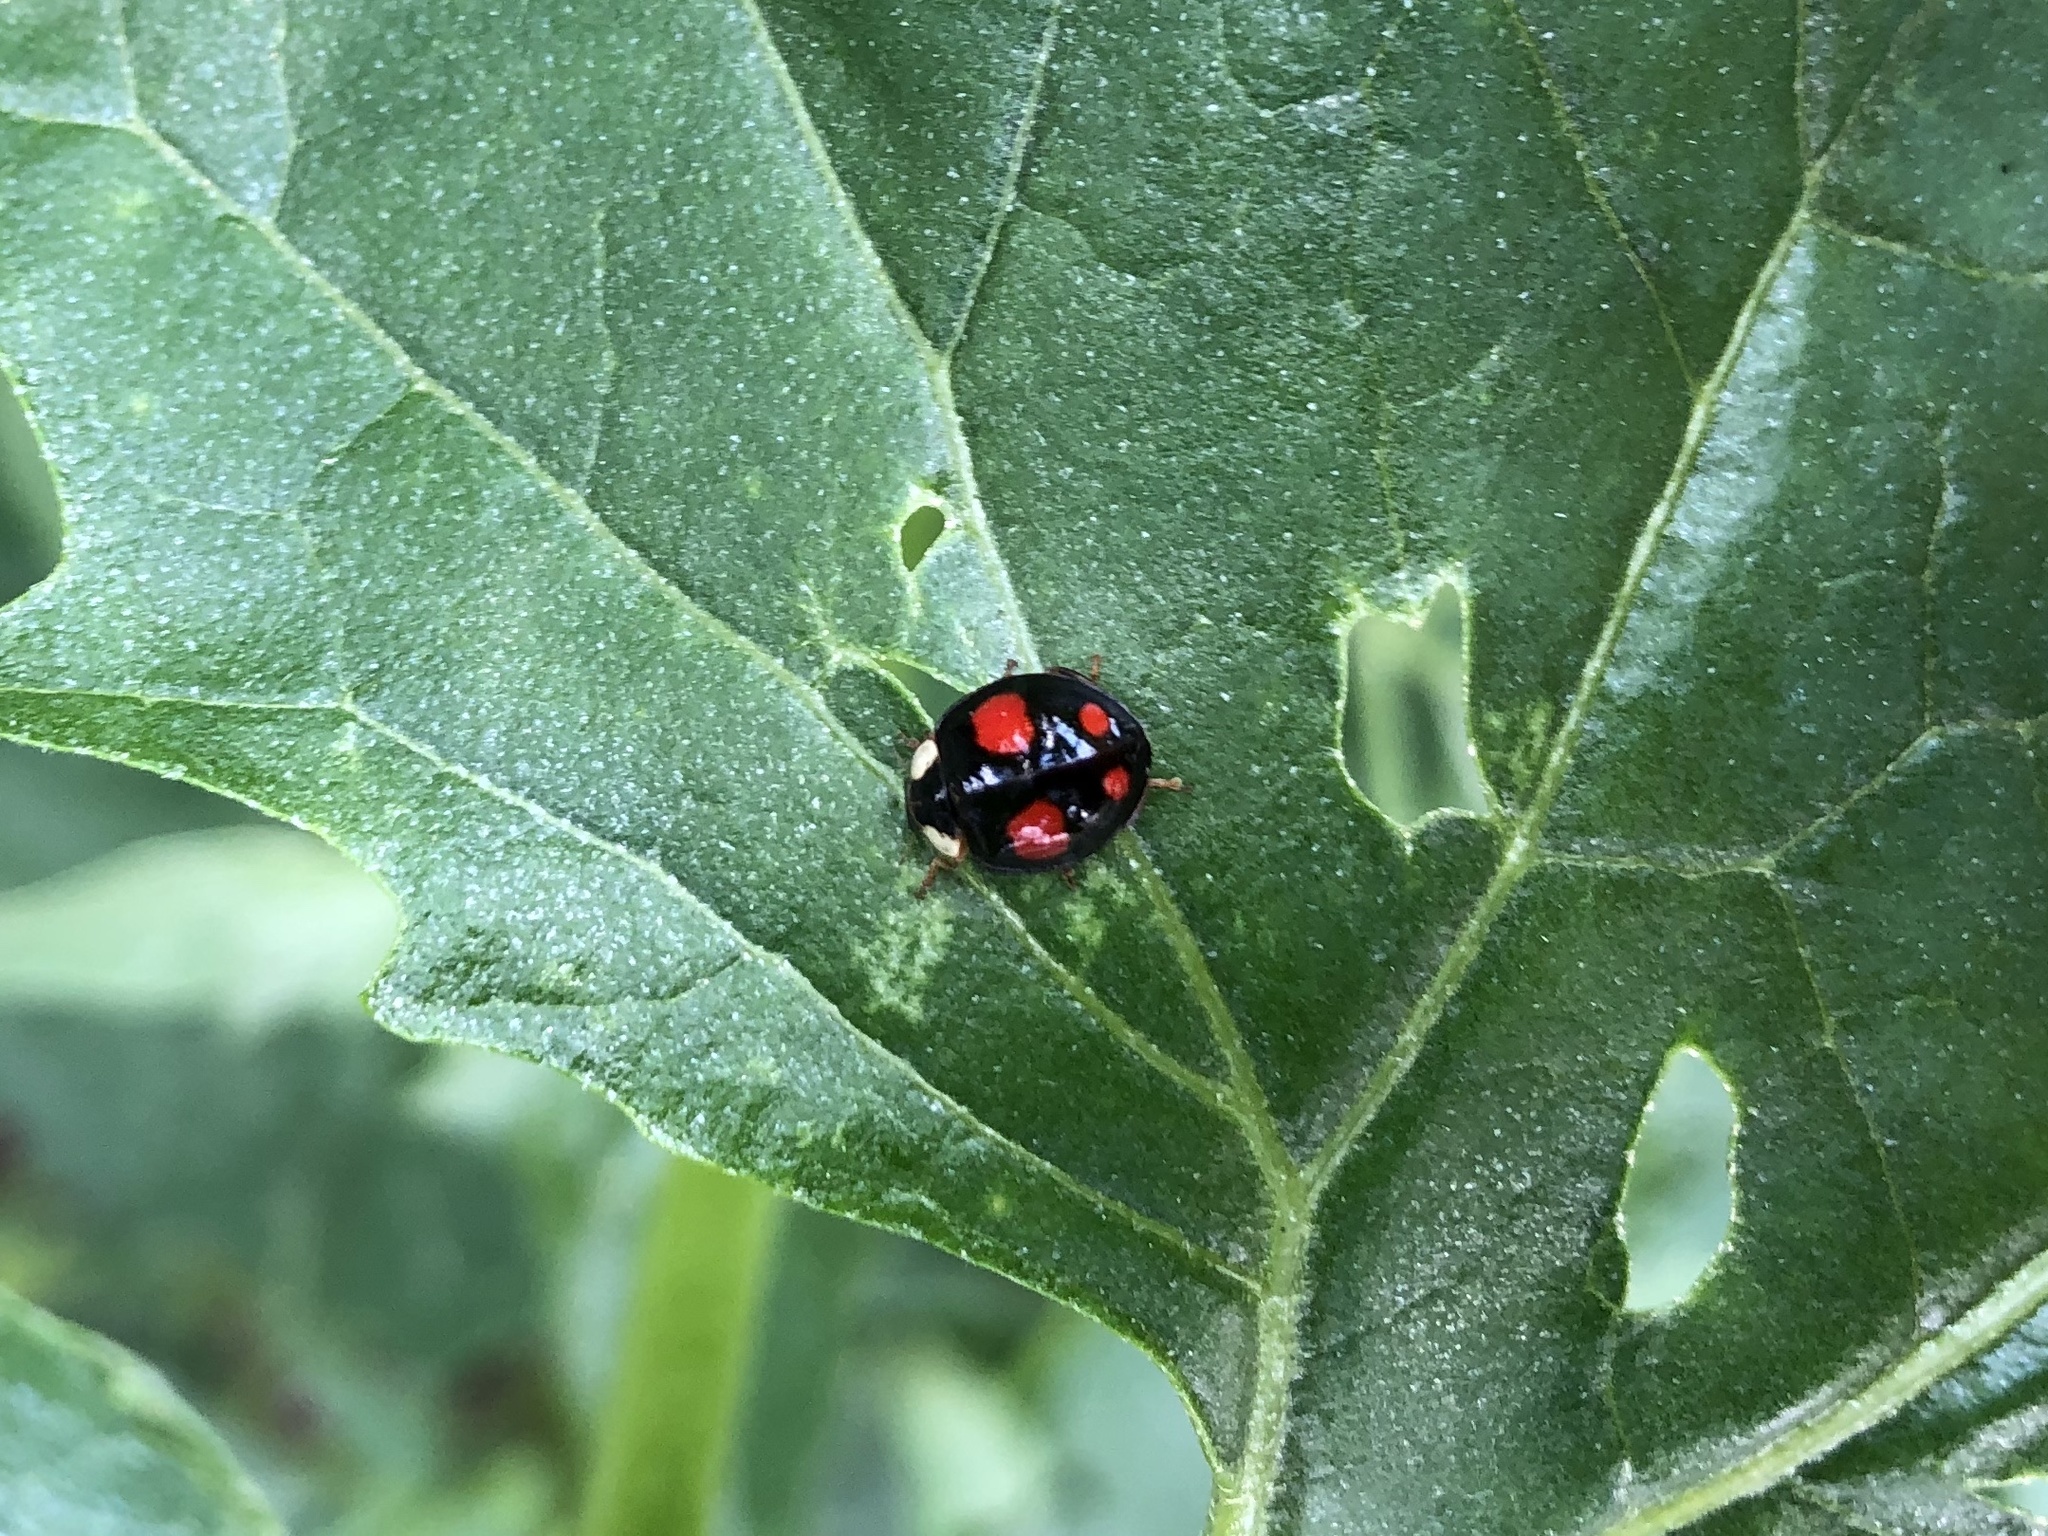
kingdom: Animalia
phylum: Arthropoda
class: Insecta
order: Coleoptera
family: Coccinellidae
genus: Harmonia
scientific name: Harmonia axyridis
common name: Harlequin ladybird
